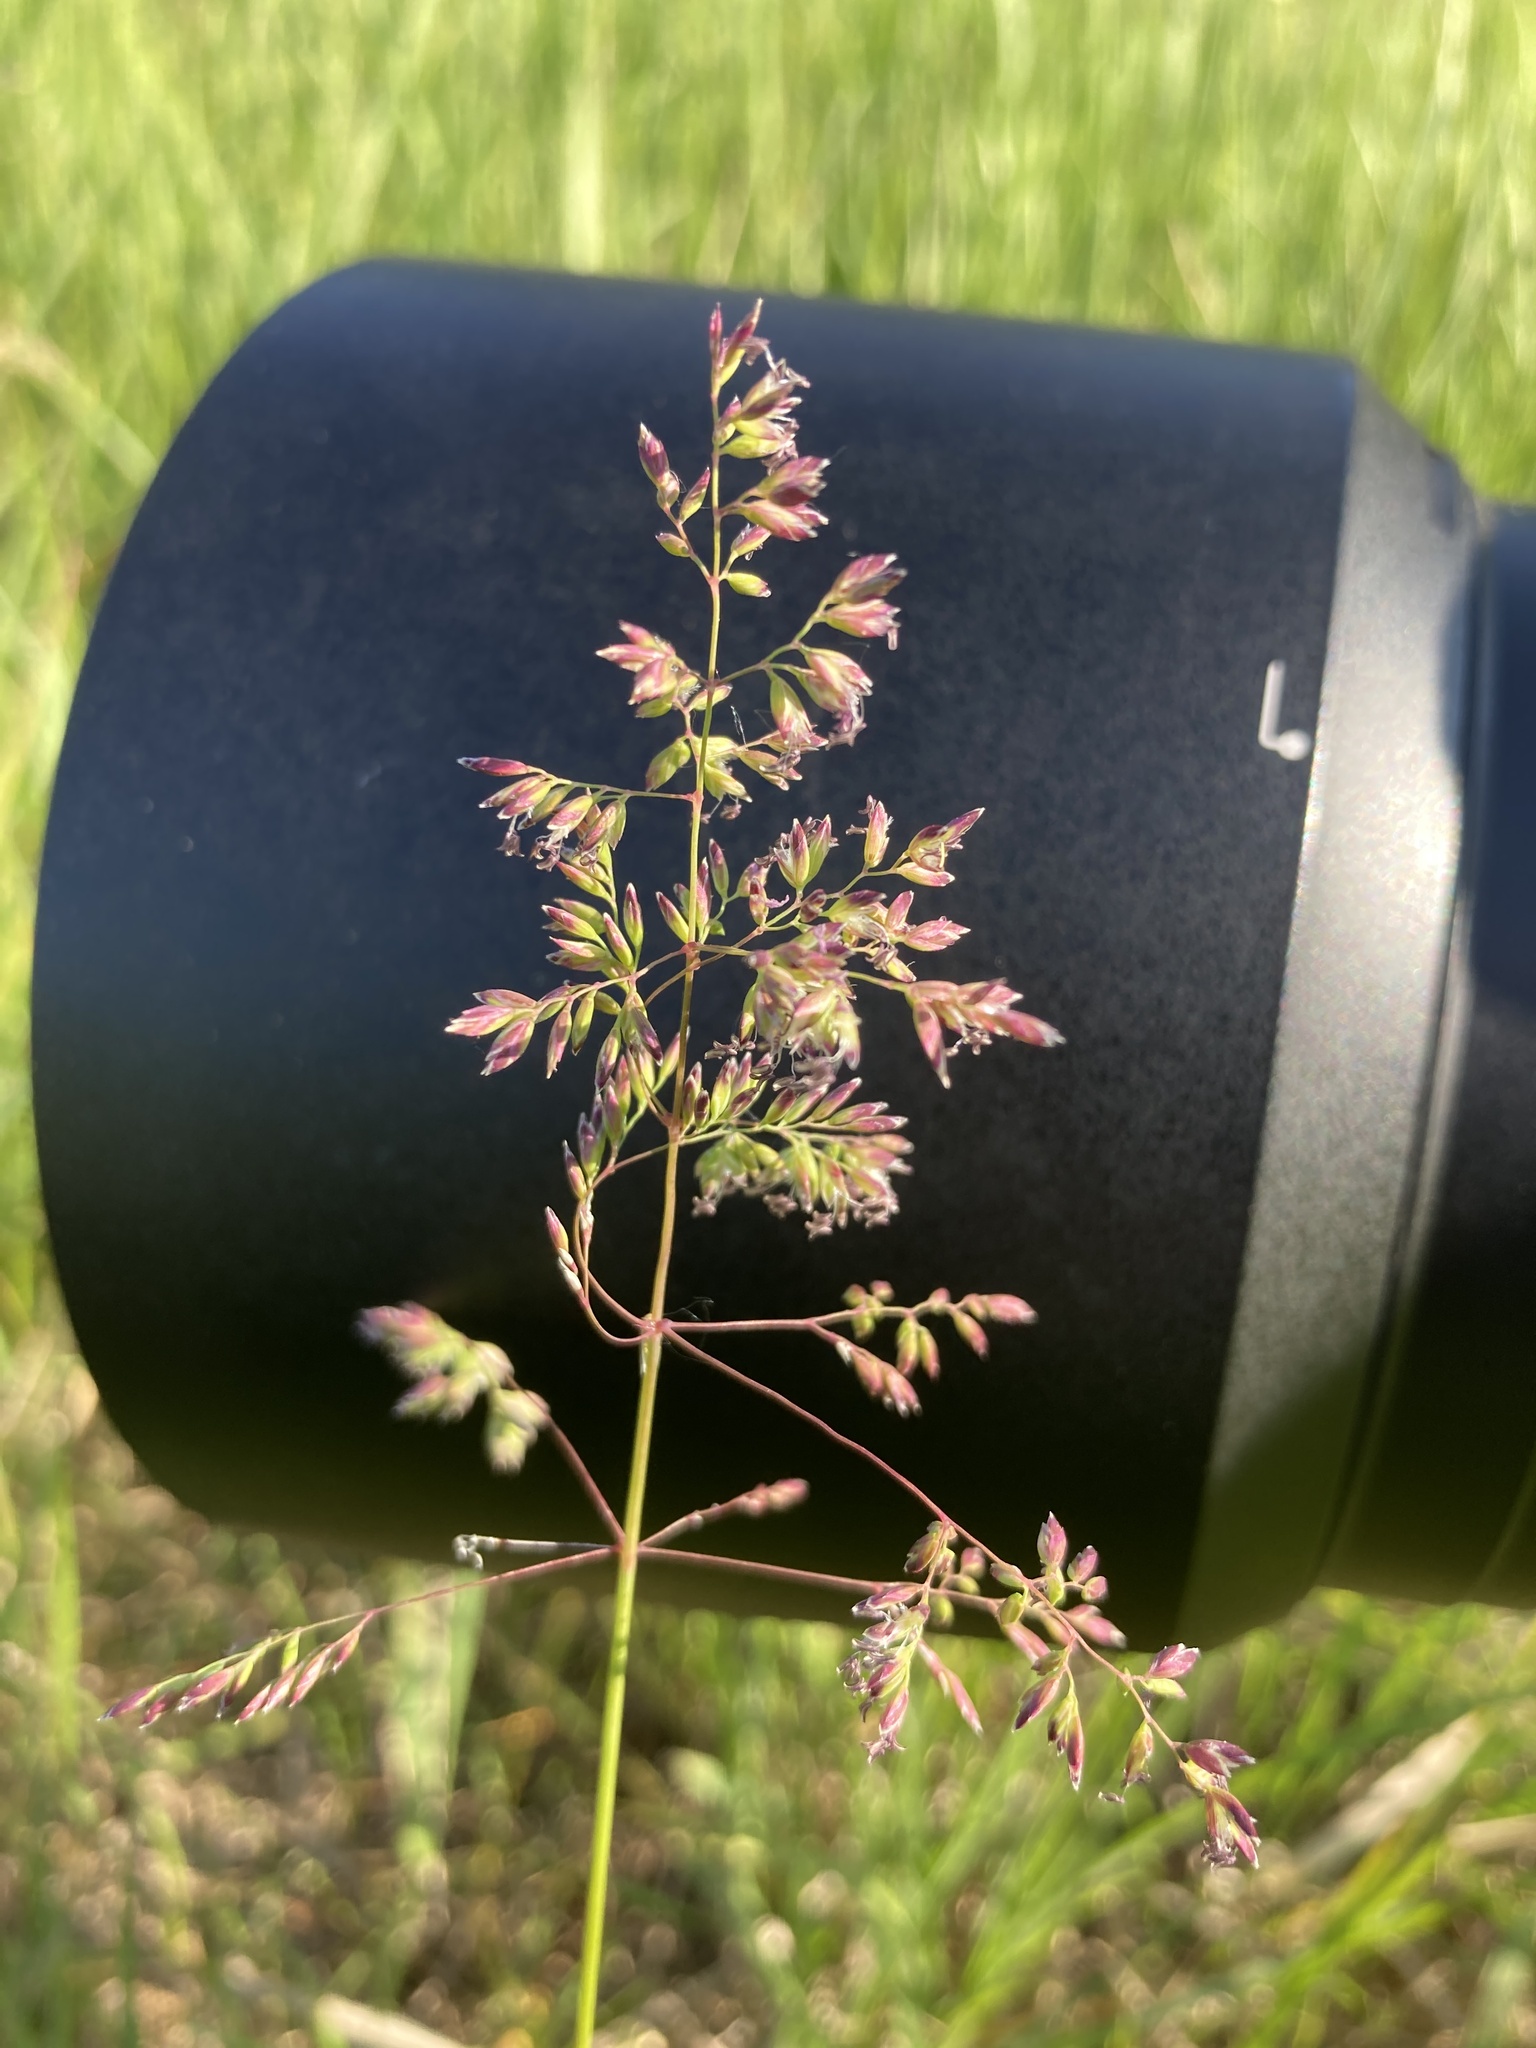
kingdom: Plantae
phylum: Tracheophyta
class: Liliopsida
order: Poales
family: Poaceae
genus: Poa
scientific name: Poa pratensis
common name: Kentucky bluegrass
